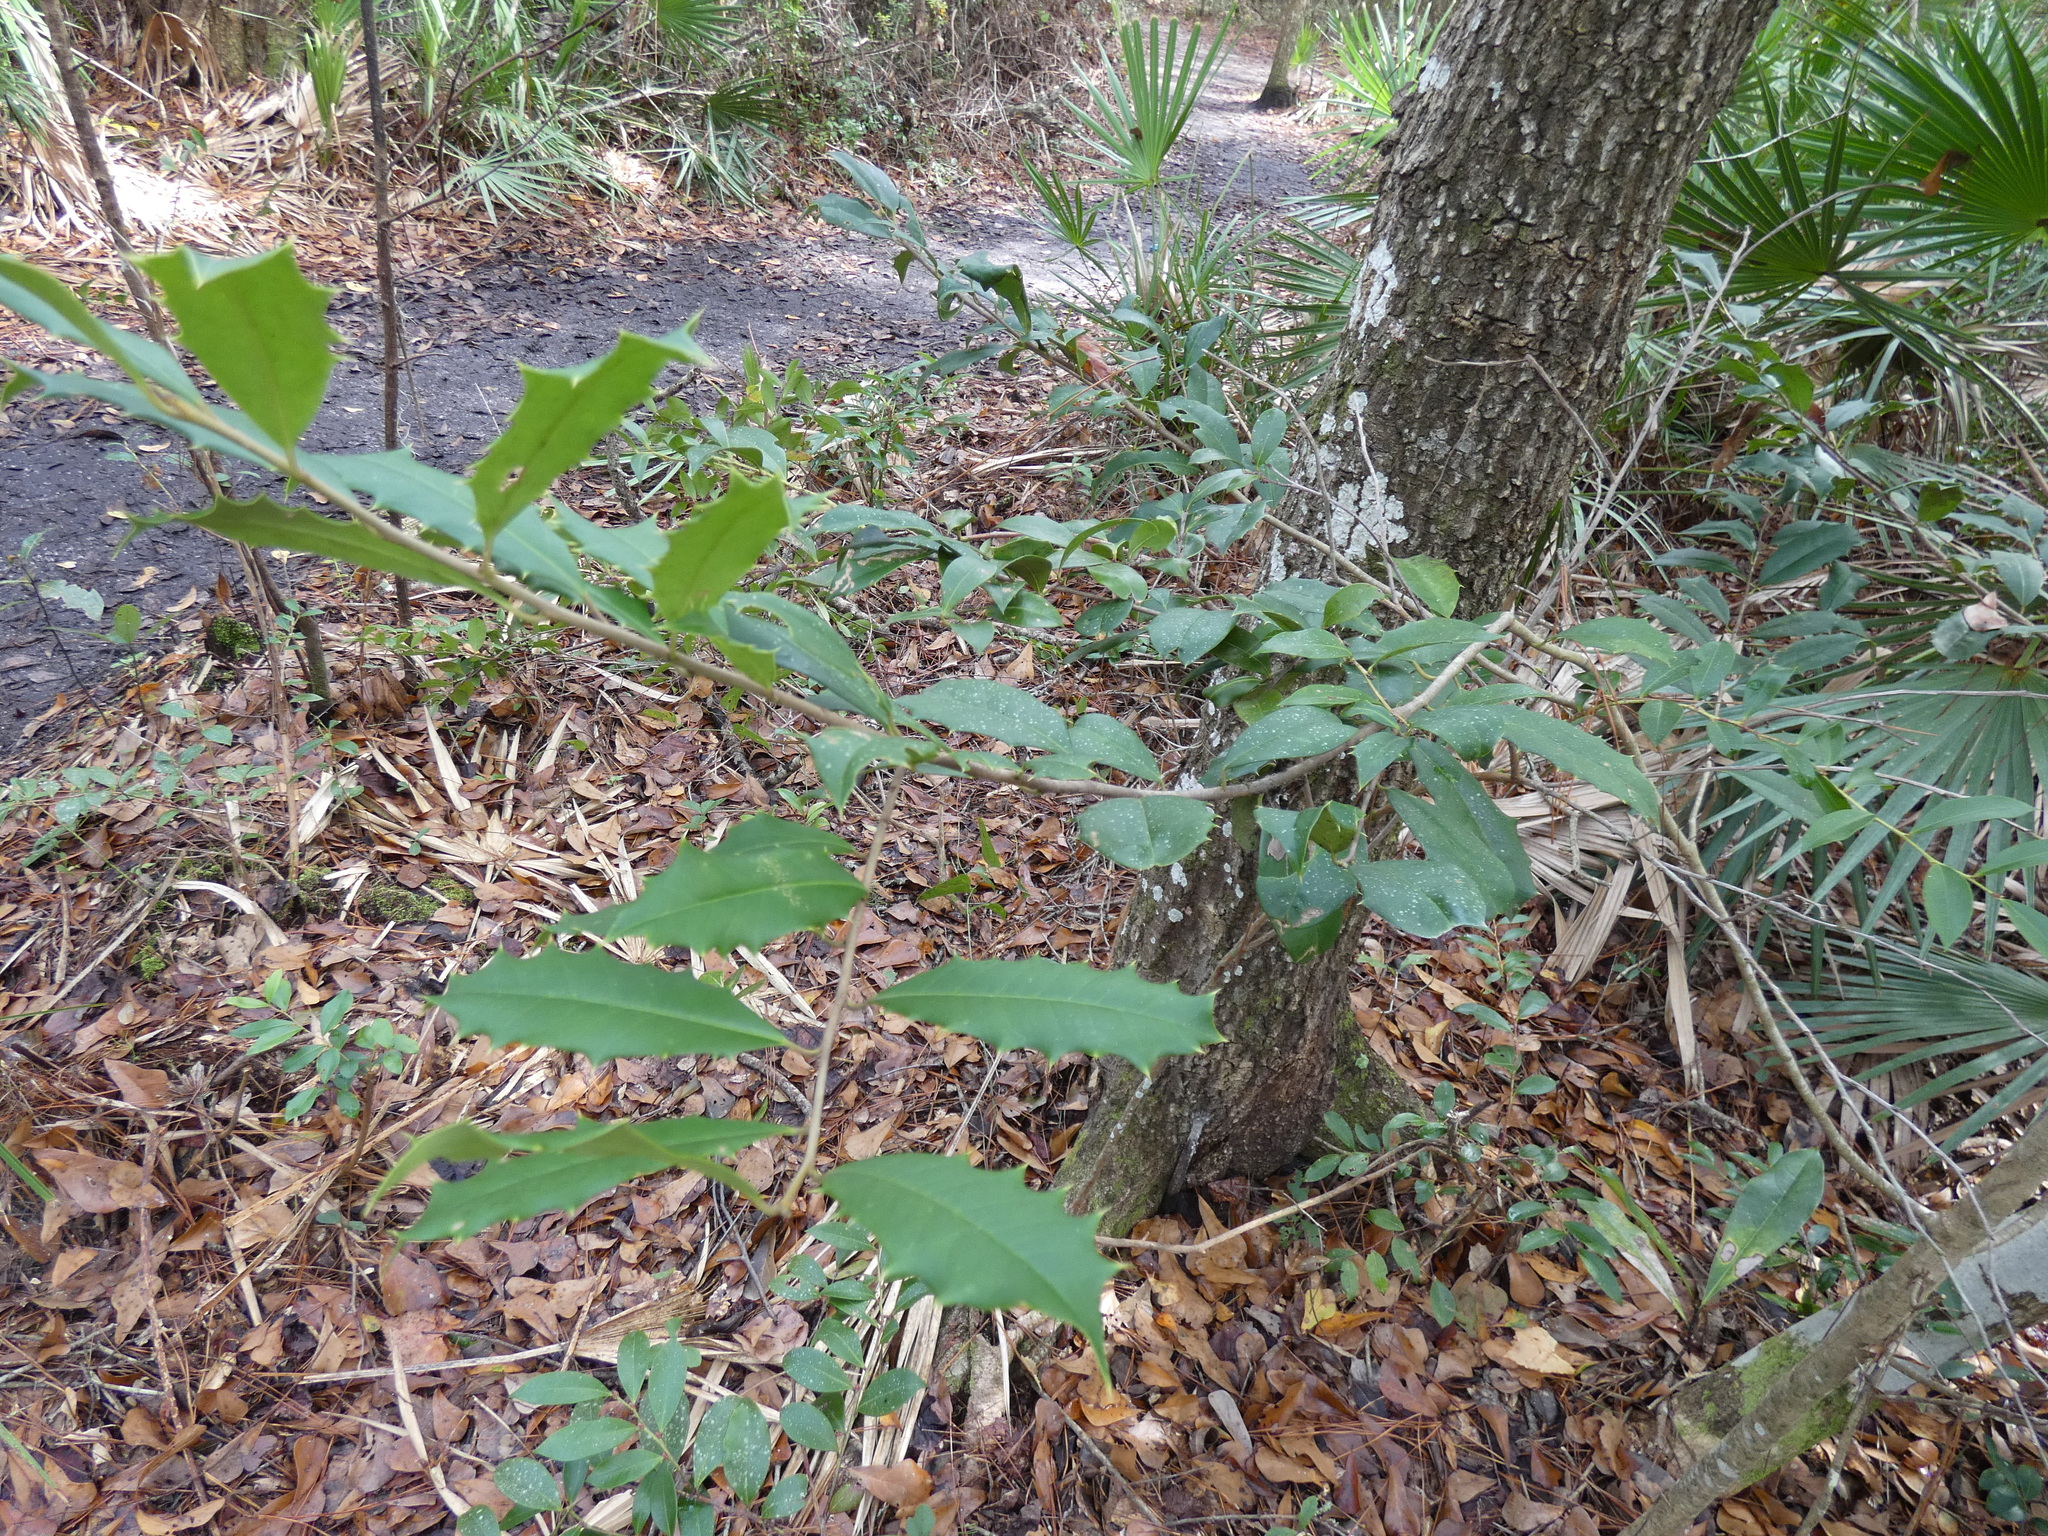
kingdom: Plantae
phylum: Tracheophyta
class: Magnoliopsida
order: Aquifoliales
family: Aquifoliaceae
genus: Ilex
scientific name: Ilex opaca
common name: American holly
